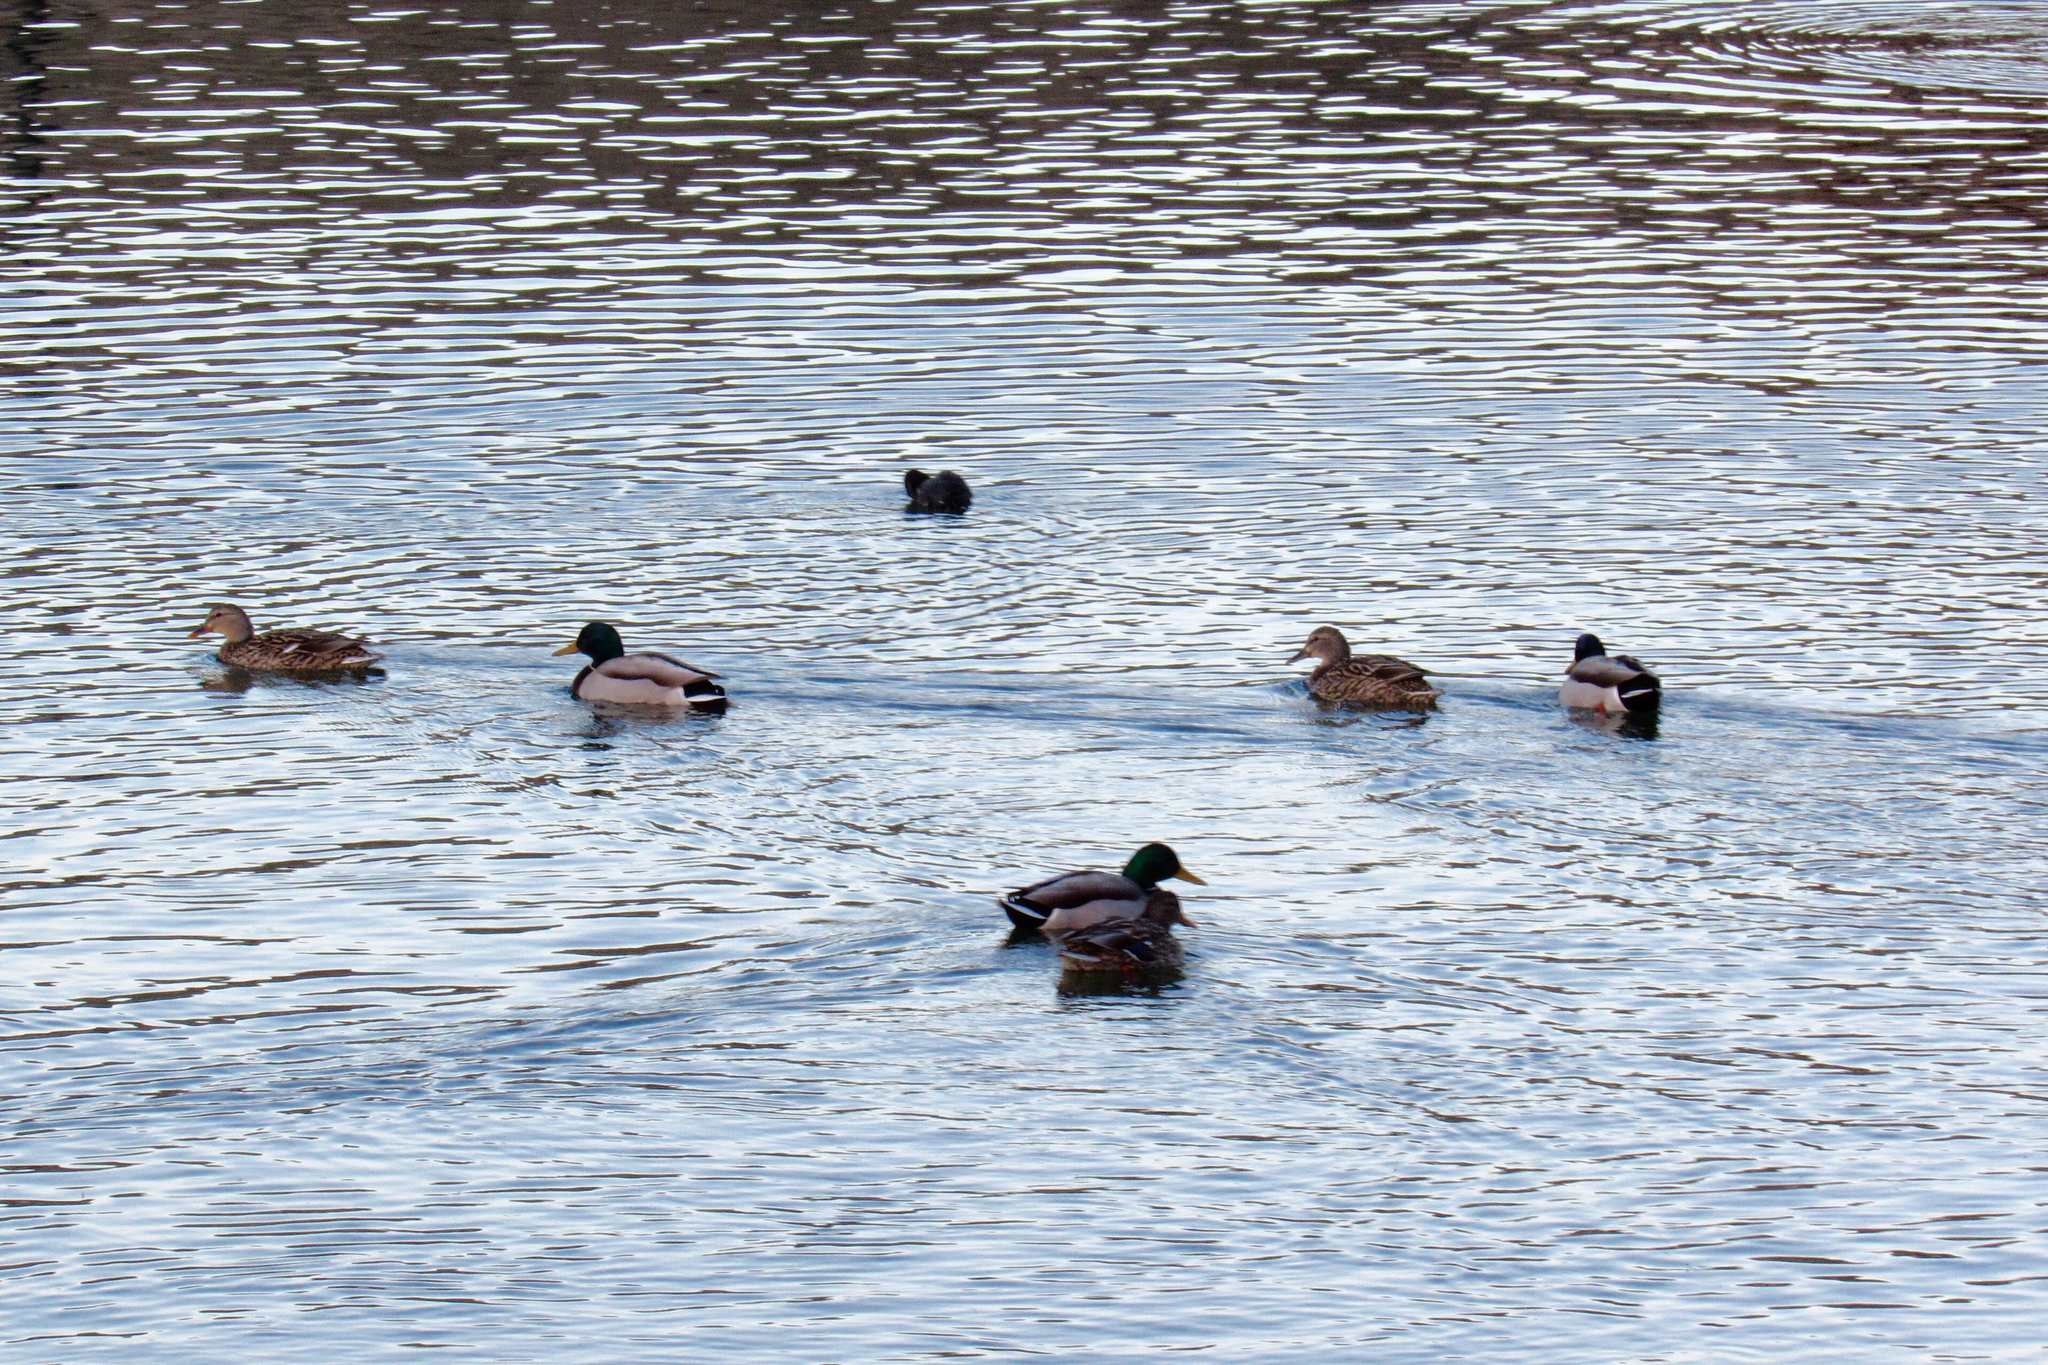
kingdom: Animalia
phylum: Chordata
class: Aves
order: Anseriformes
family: Anatidae
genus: Anas
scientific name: Anas platyrhynchos
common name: Mallard
